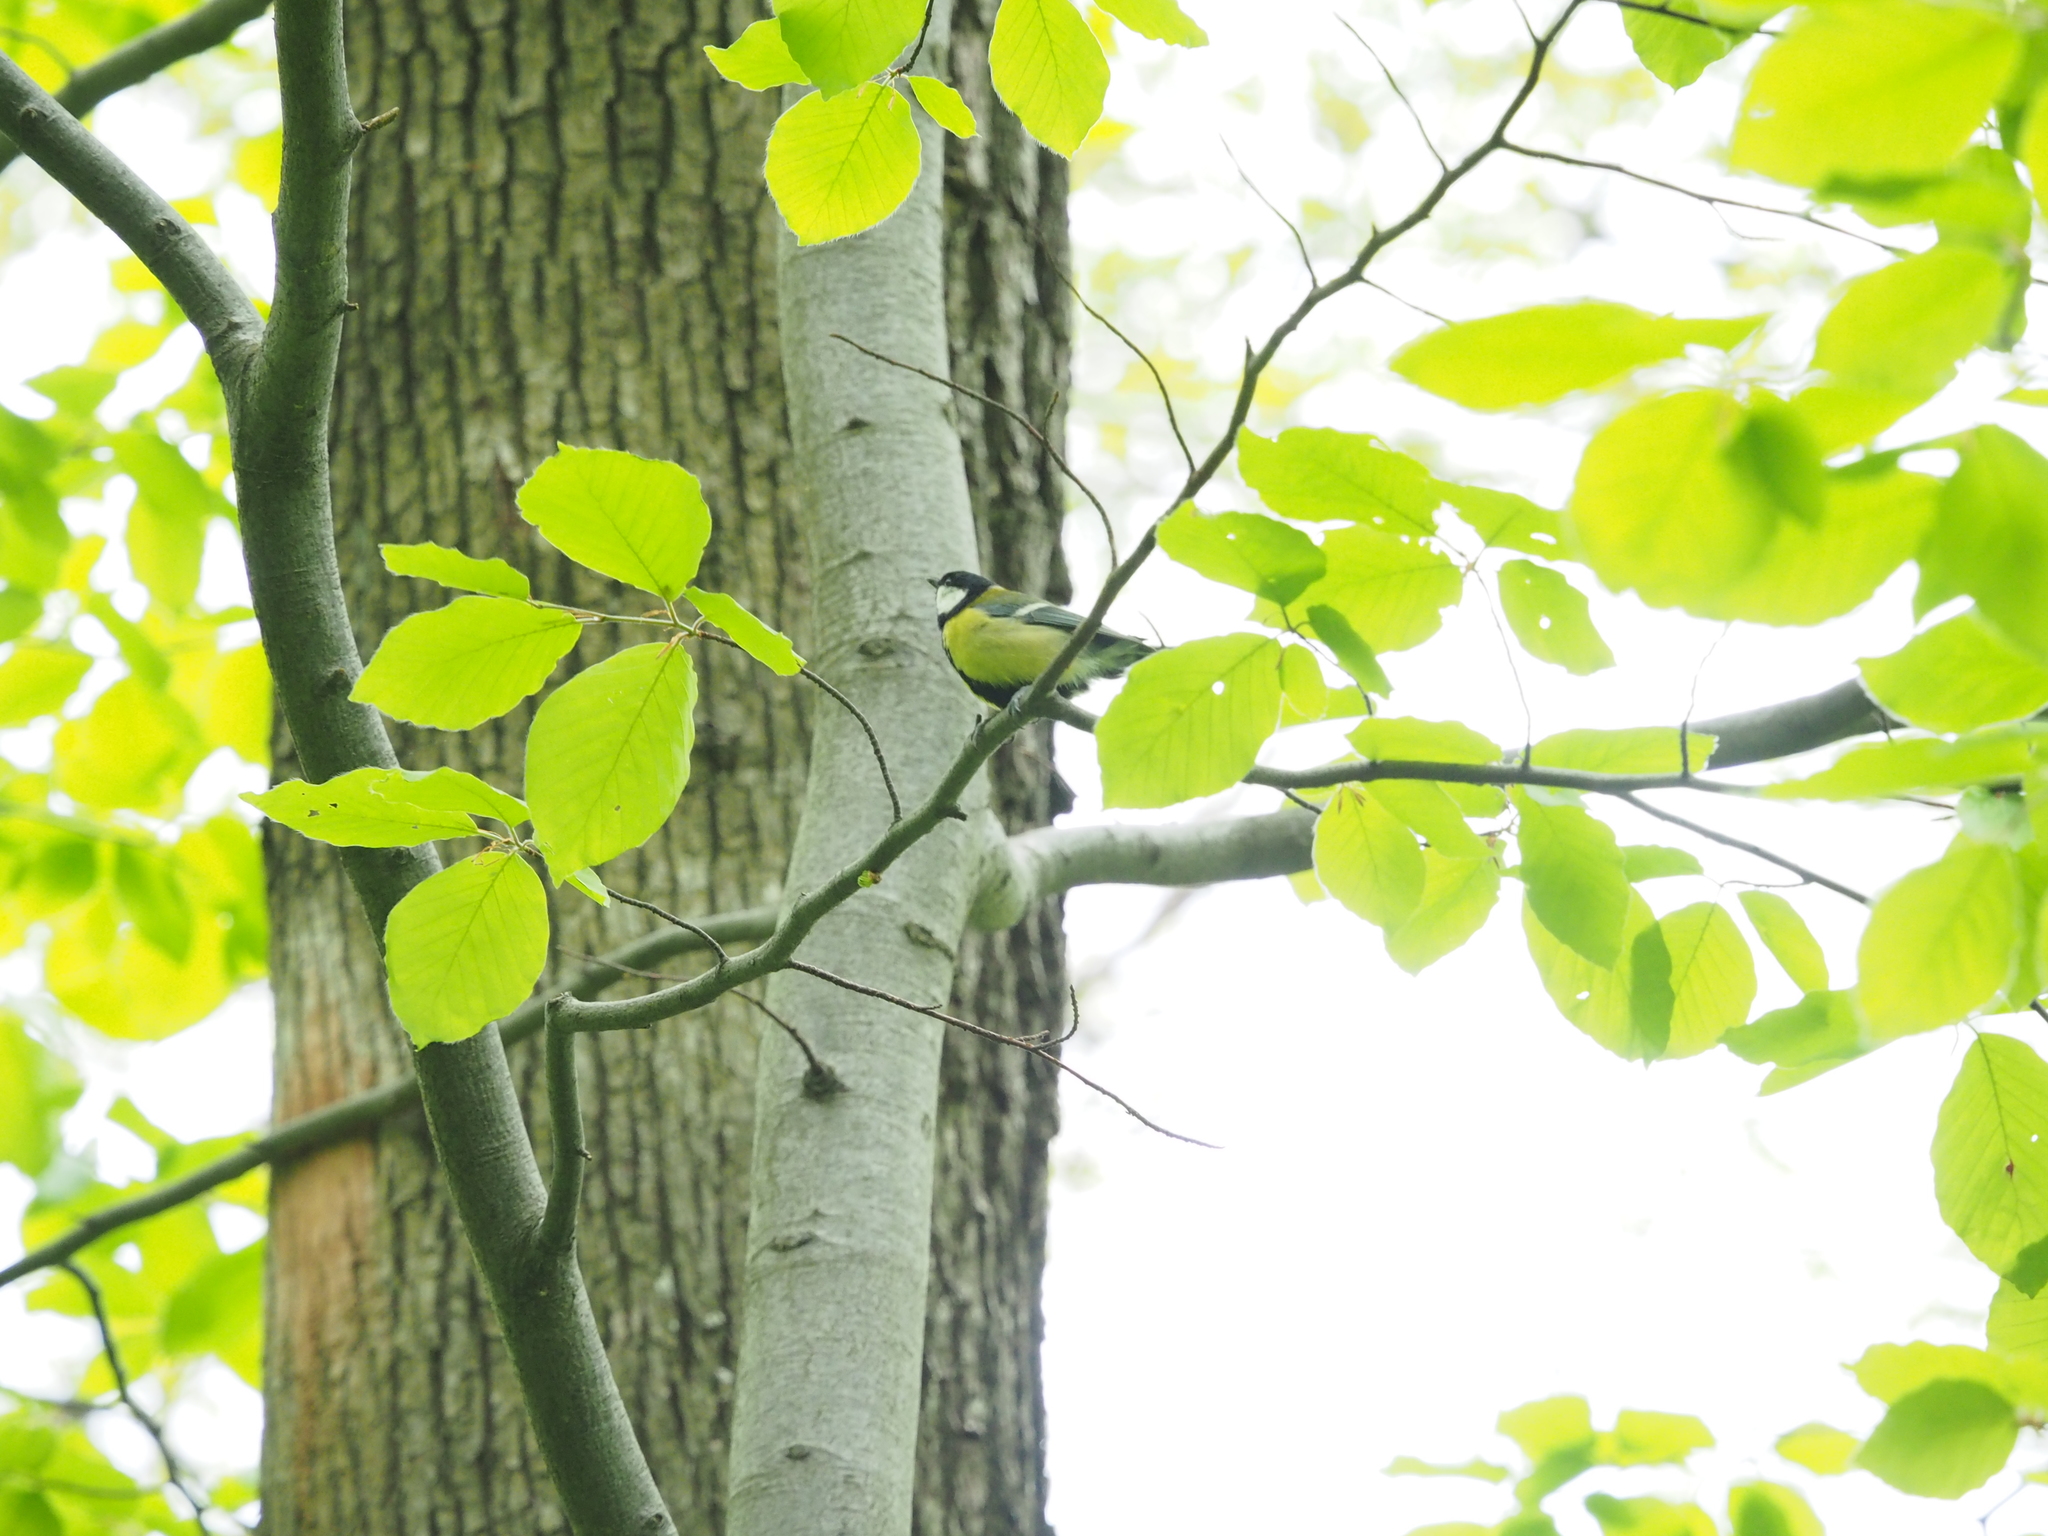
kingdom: Animalia
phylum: Chordata
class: Aves
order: Passeriformes
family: Paridae
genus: Parus
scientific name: Parus major
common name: Great tit
